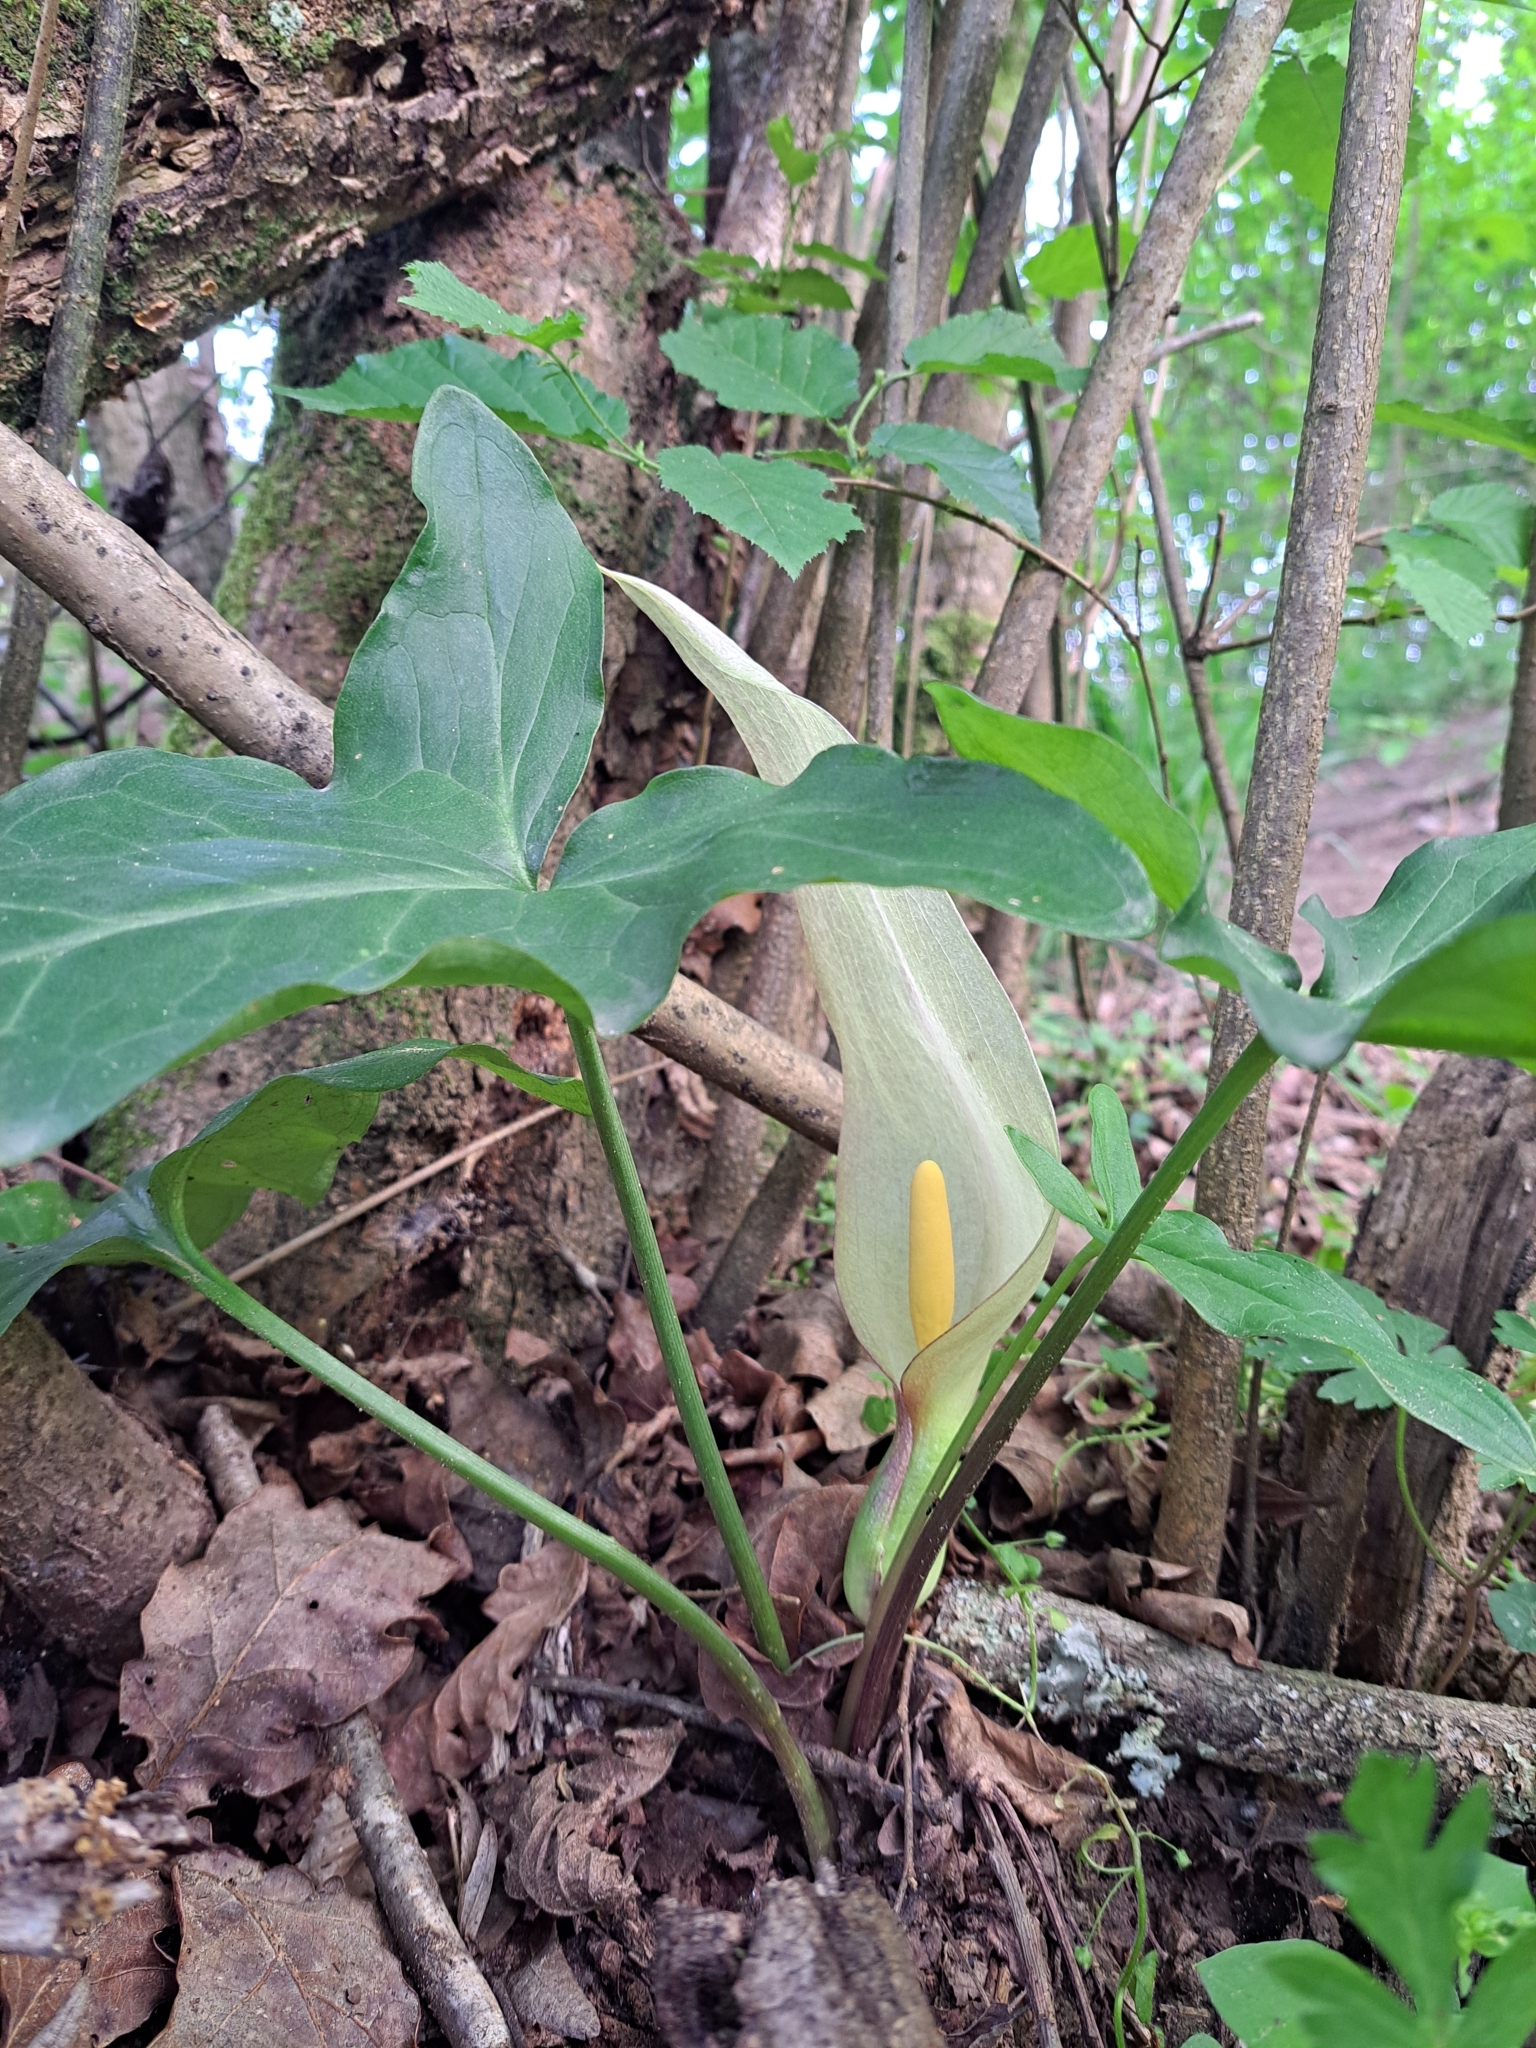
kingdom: Plantae
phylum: Tracheophyta
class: Liliopsida
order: Alismatales
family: Araceae
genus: Arum
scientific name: Arum italicum
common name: Italian lords-and-ladies
